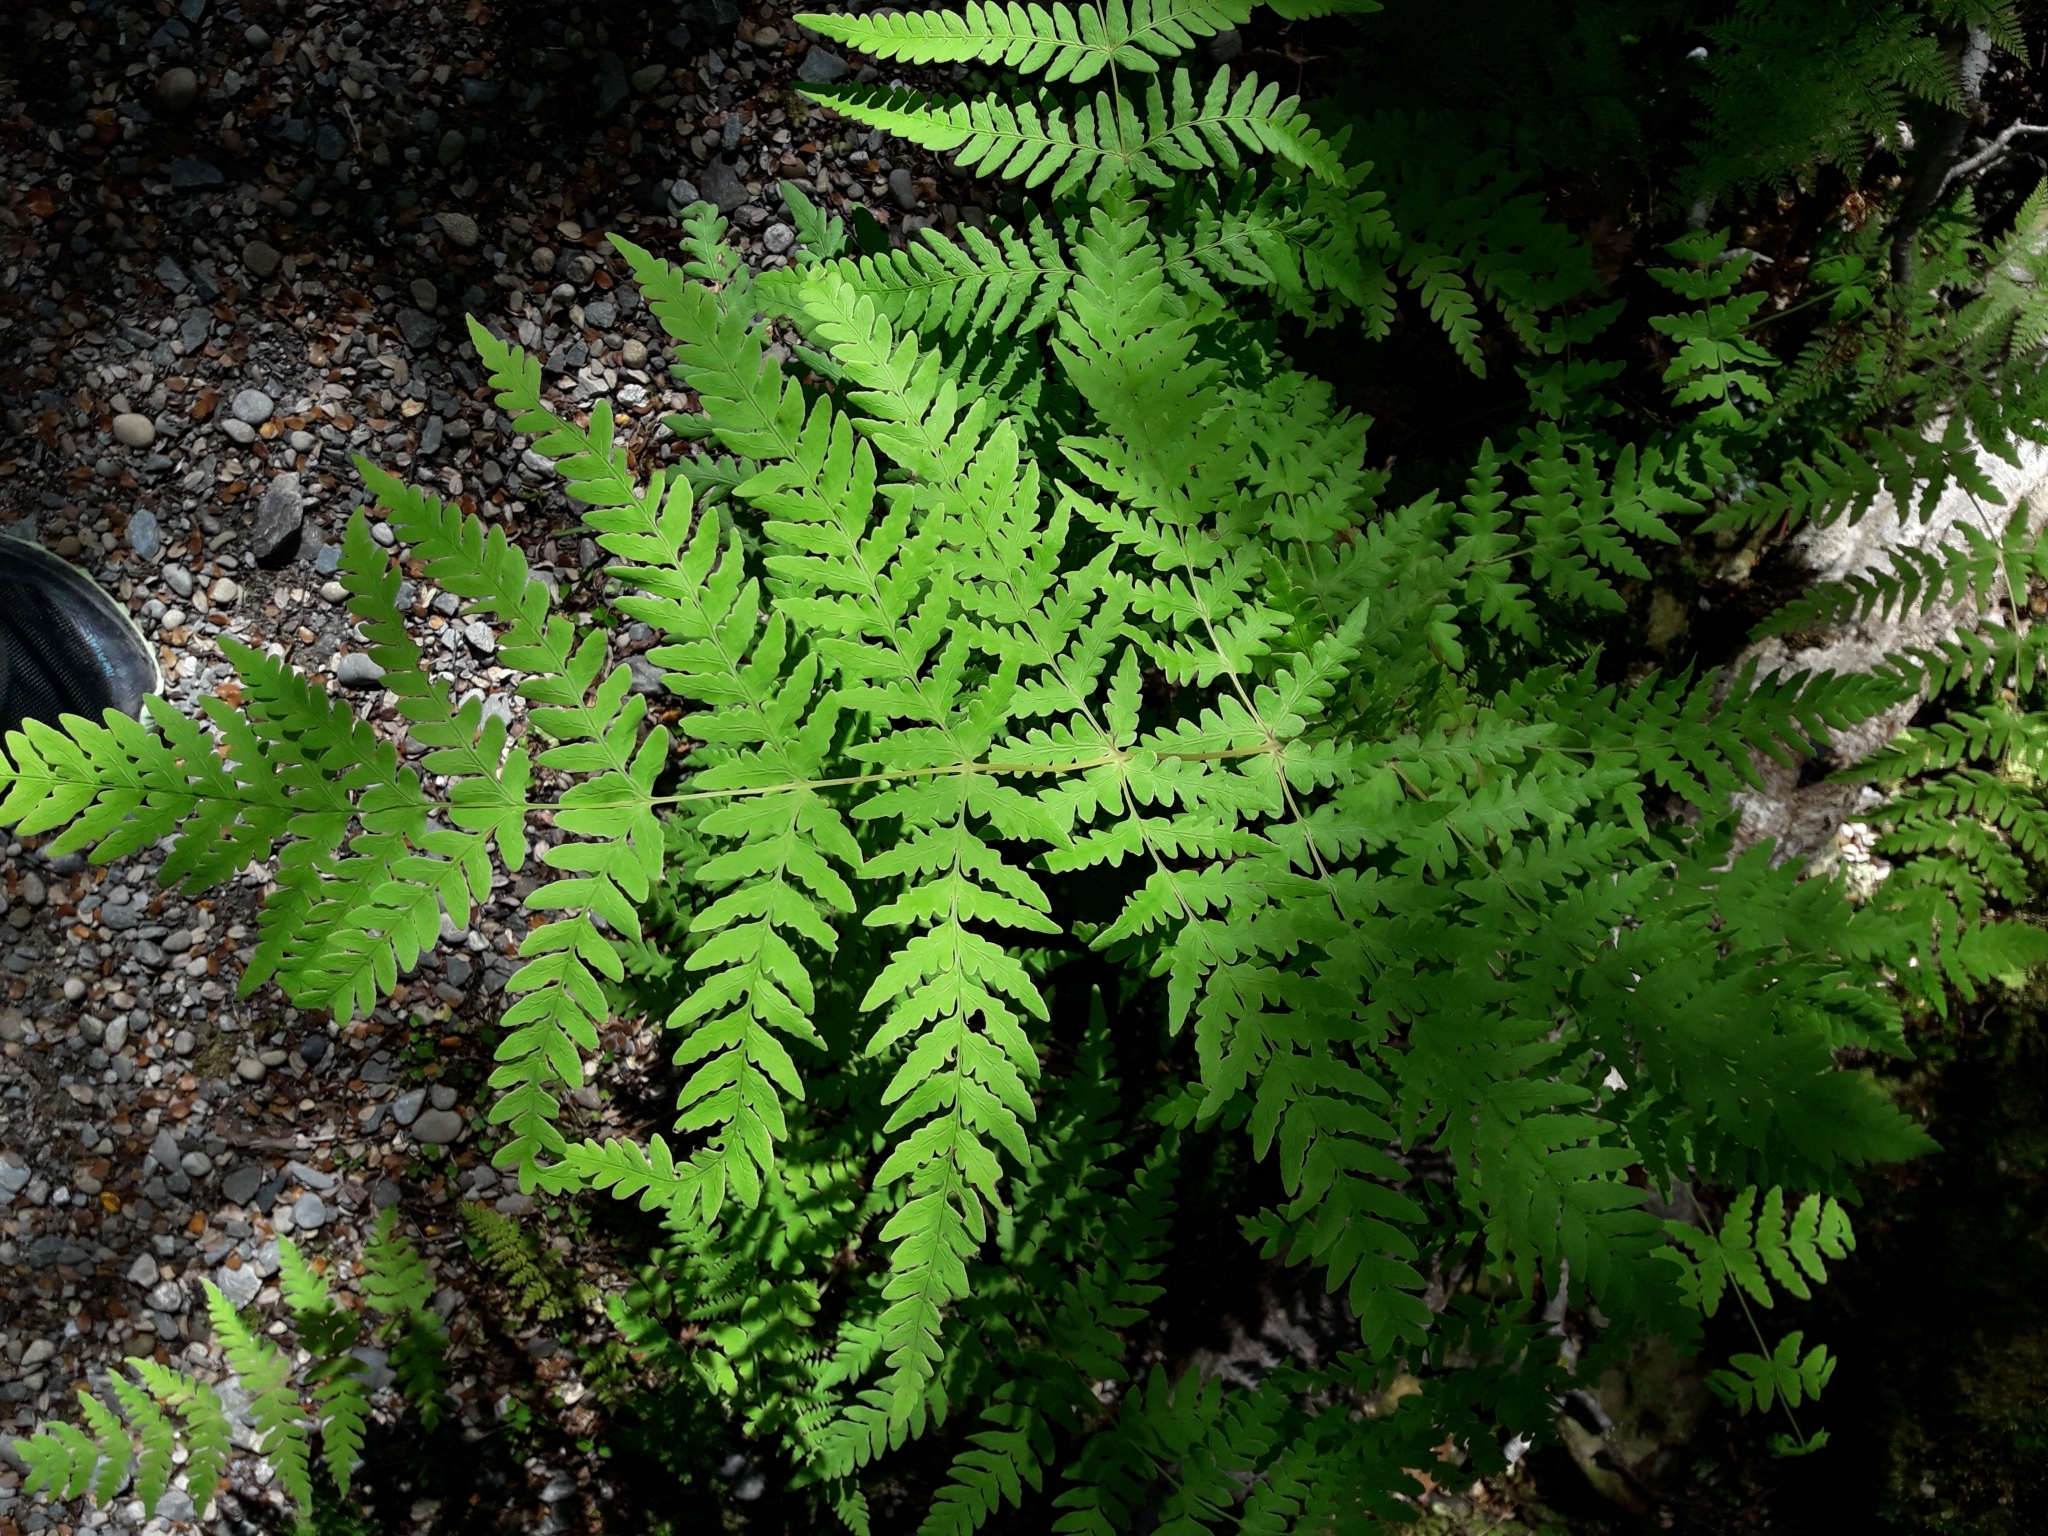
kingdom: Plantae
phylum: Tracheophyta
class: Polypodiopsida
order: Polypodiales
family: Dennstaedtiaceae
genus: Histiopteris
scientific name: Histiopteris incisa
